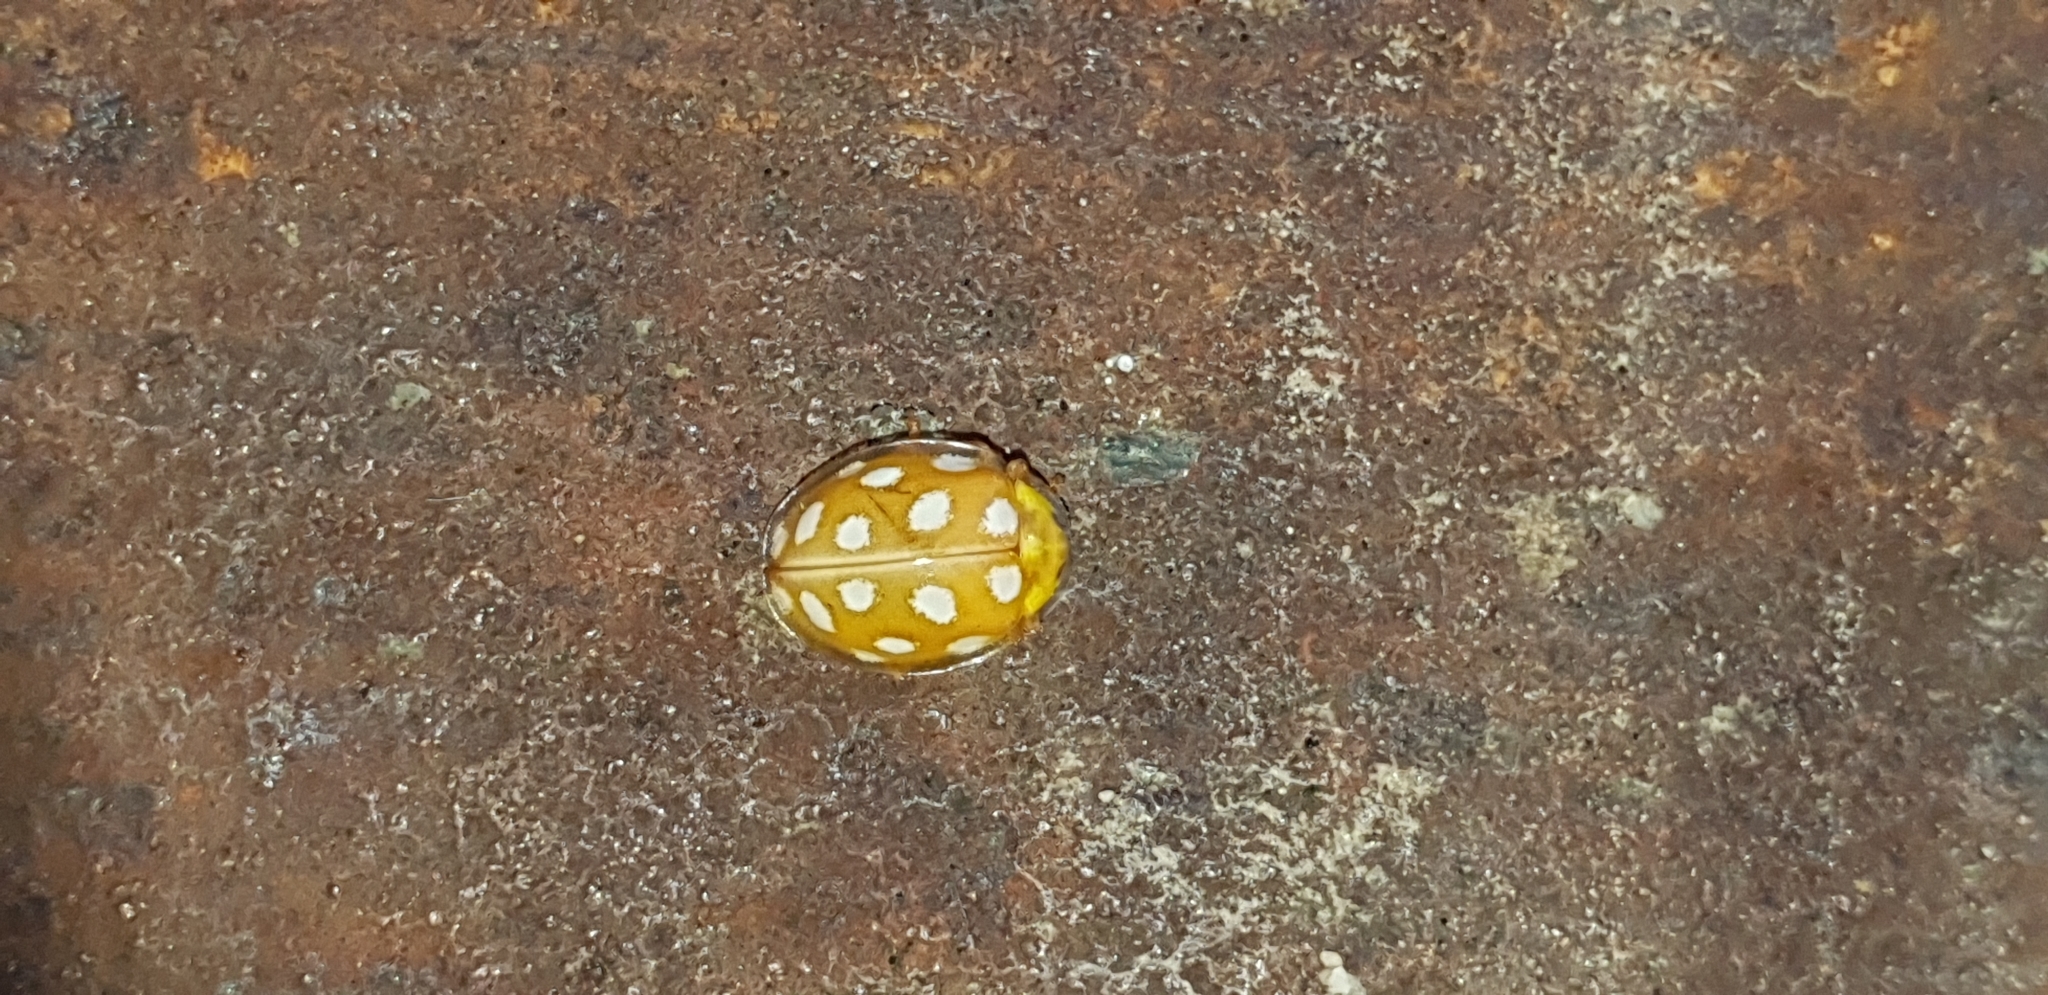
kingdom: Animalia
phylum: Arthropoda
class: Insecta
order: Coleoptera
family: Coccinellidae
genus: Halyzia
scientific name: Halyzia sedecimguttata
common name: Orange ladybird
